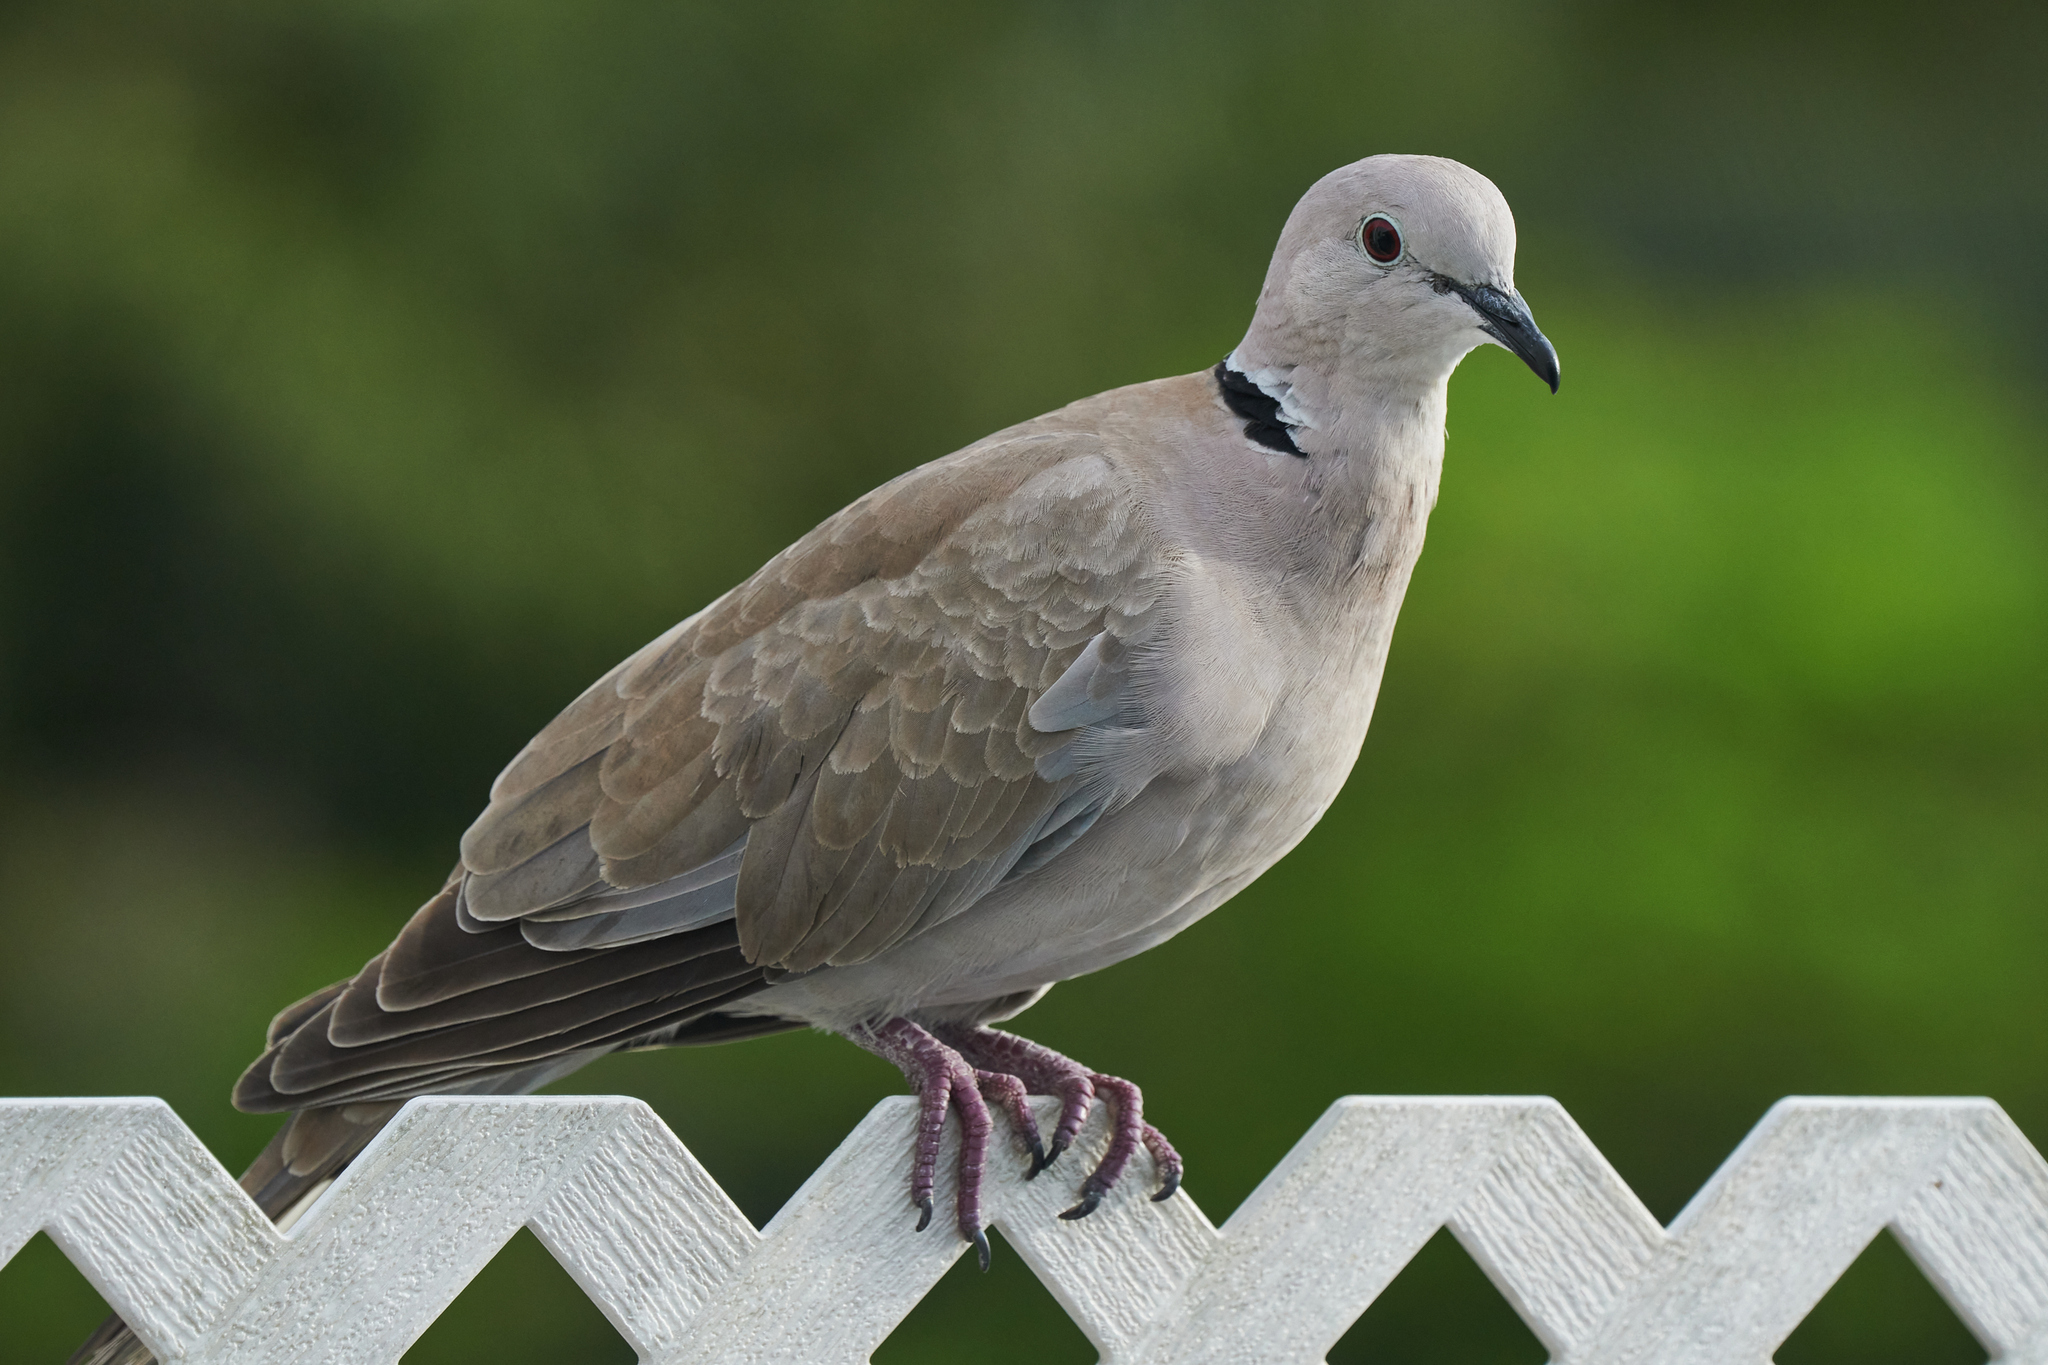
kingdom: Animalia
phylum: Chordata
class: Aves
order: Columbiformes
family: Columbidae
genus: Streptopelia
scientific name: Streptopelia decaocto
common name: Eurasian collared dove
